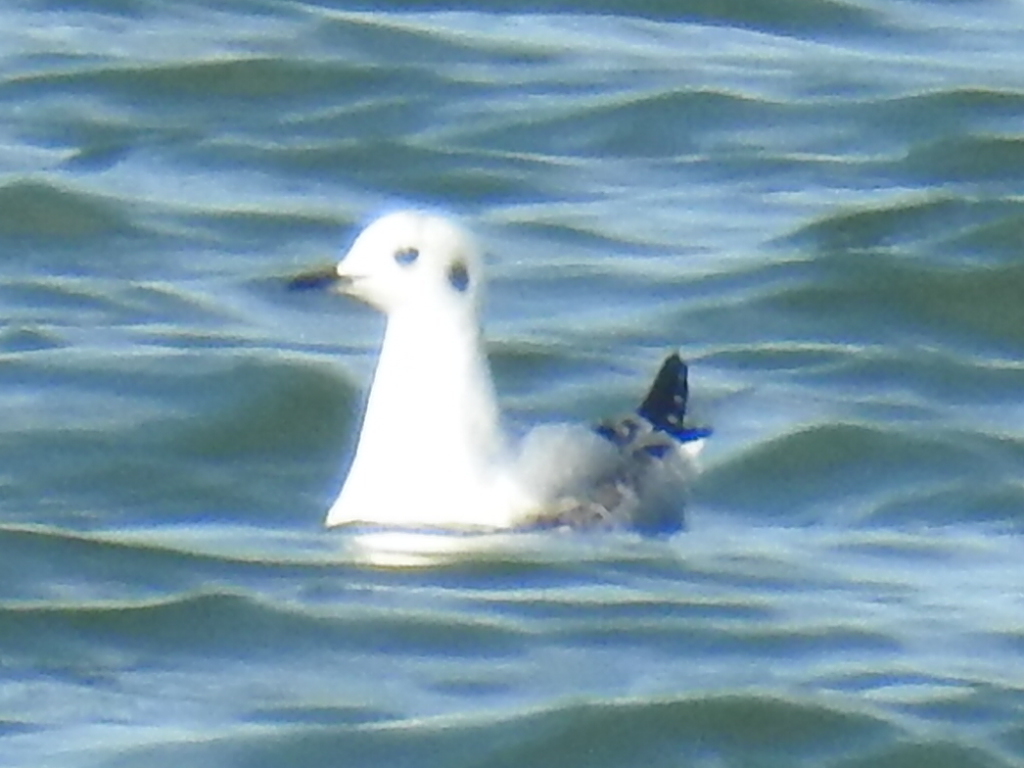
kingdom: Animalia
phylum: Chordata
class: Aves
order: Charadriiformes
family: Laridae
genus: Chroicocephalus
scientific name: Chroicocephalus philadelphia
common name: Bonaparte's gull
